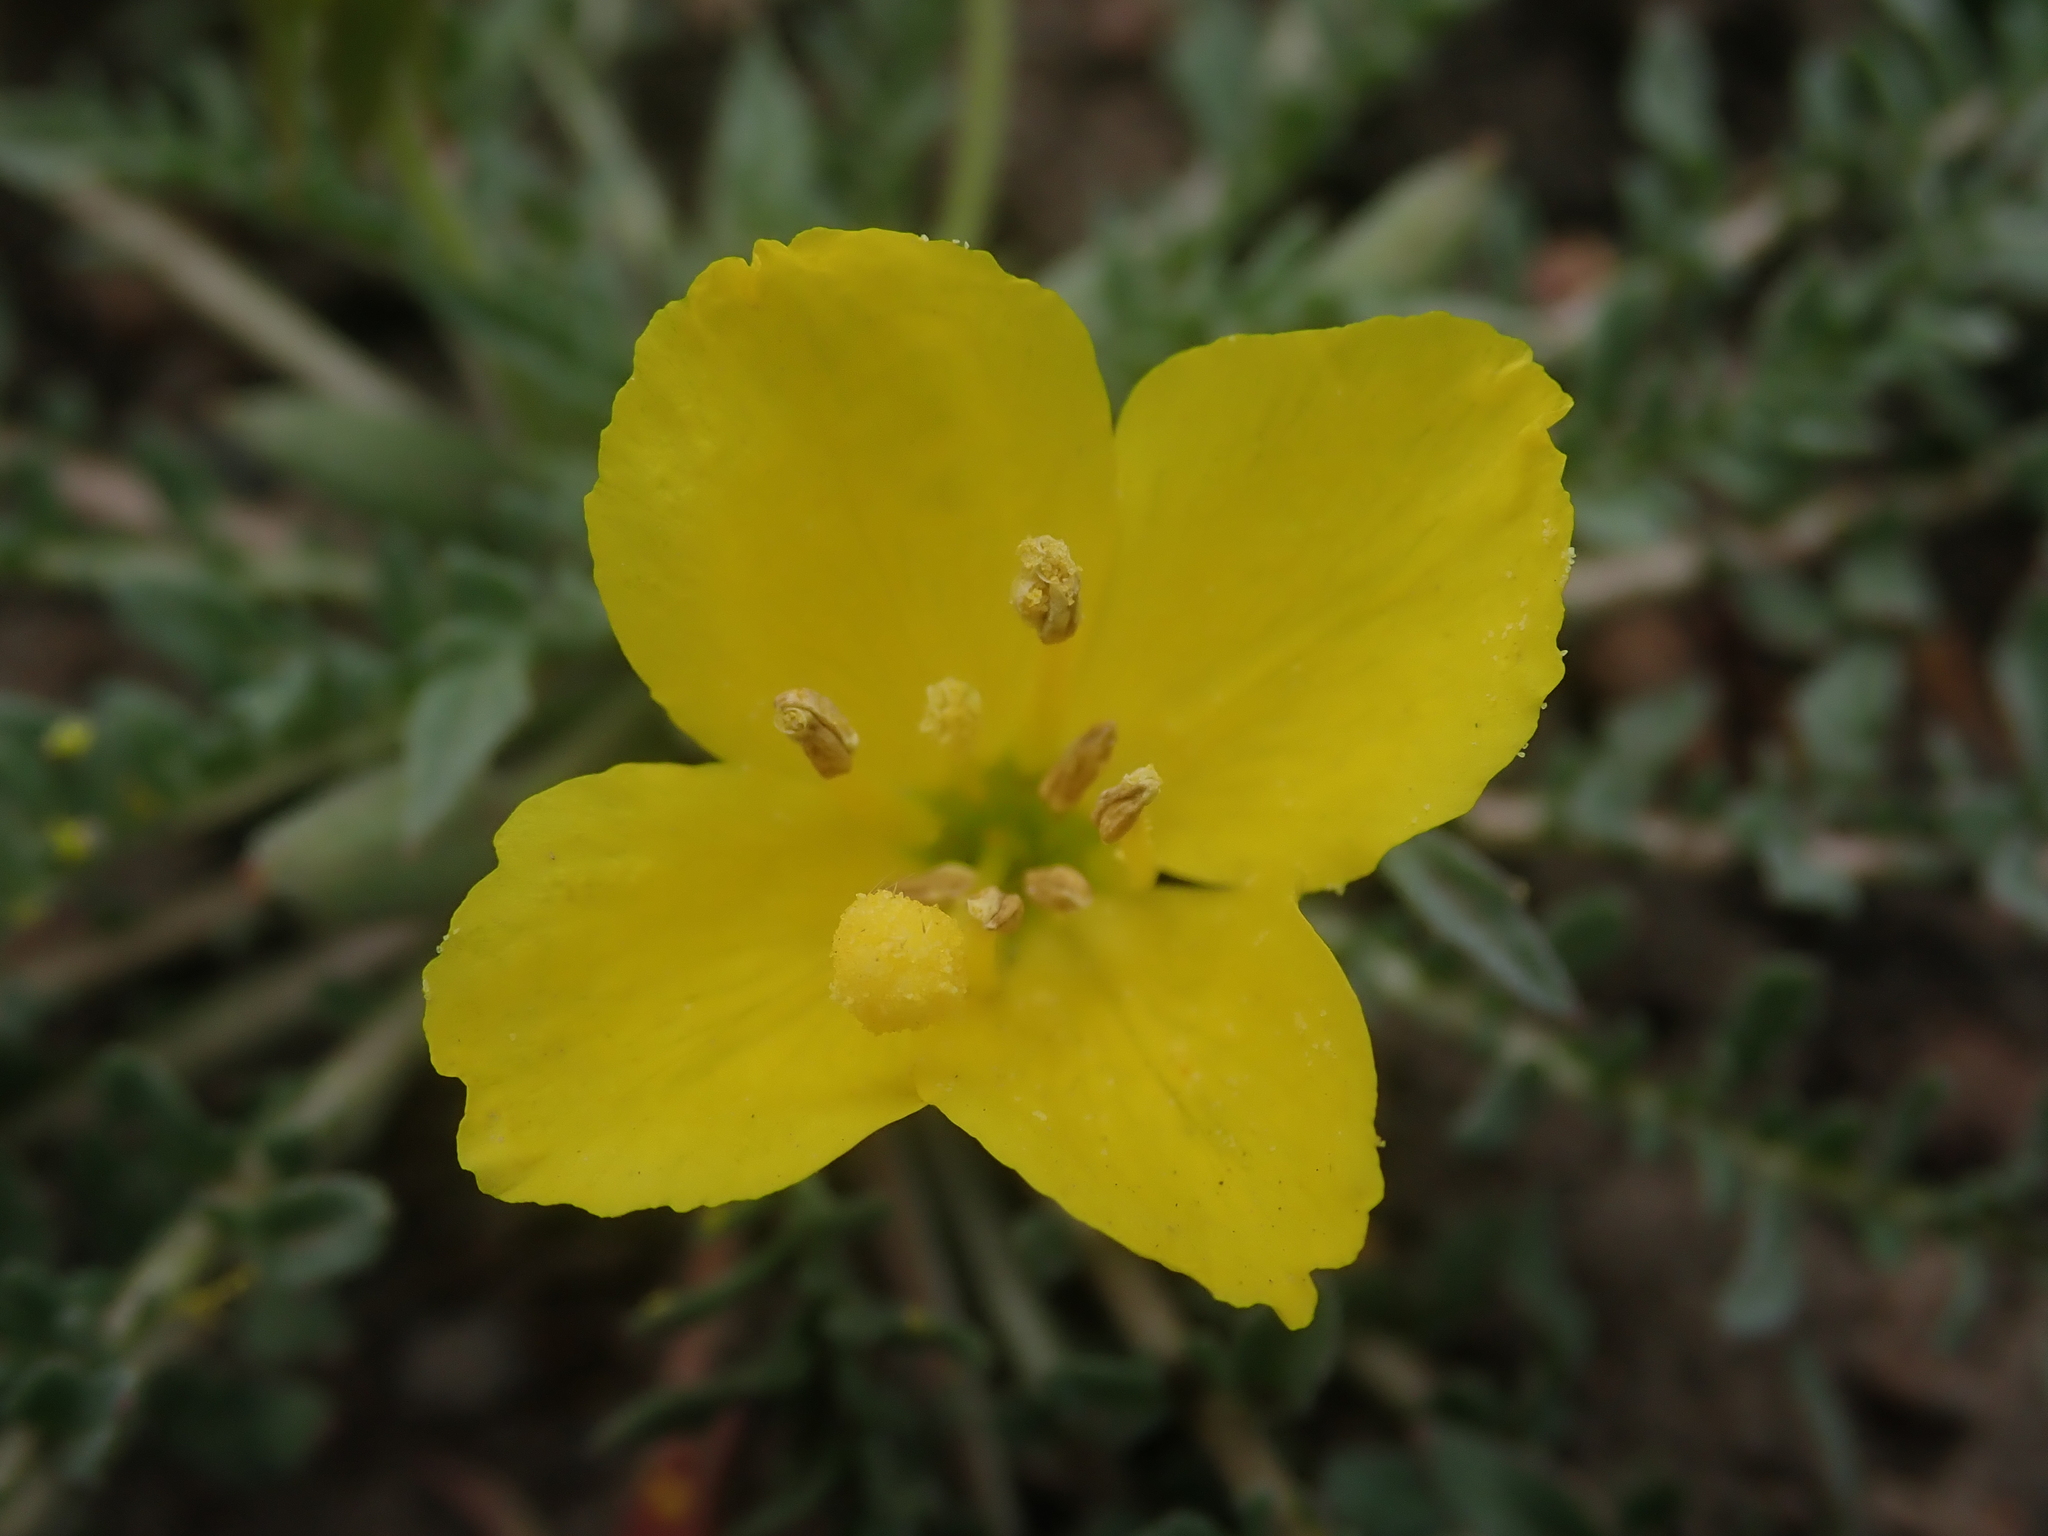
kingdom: Plantae
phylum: Tracheophyta
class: Magnoliopsida
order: Myrtales
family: Onagraceae
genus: Taraxia
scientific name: Taraxia tanacetifolia
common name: Tansyleaf evening primrose
